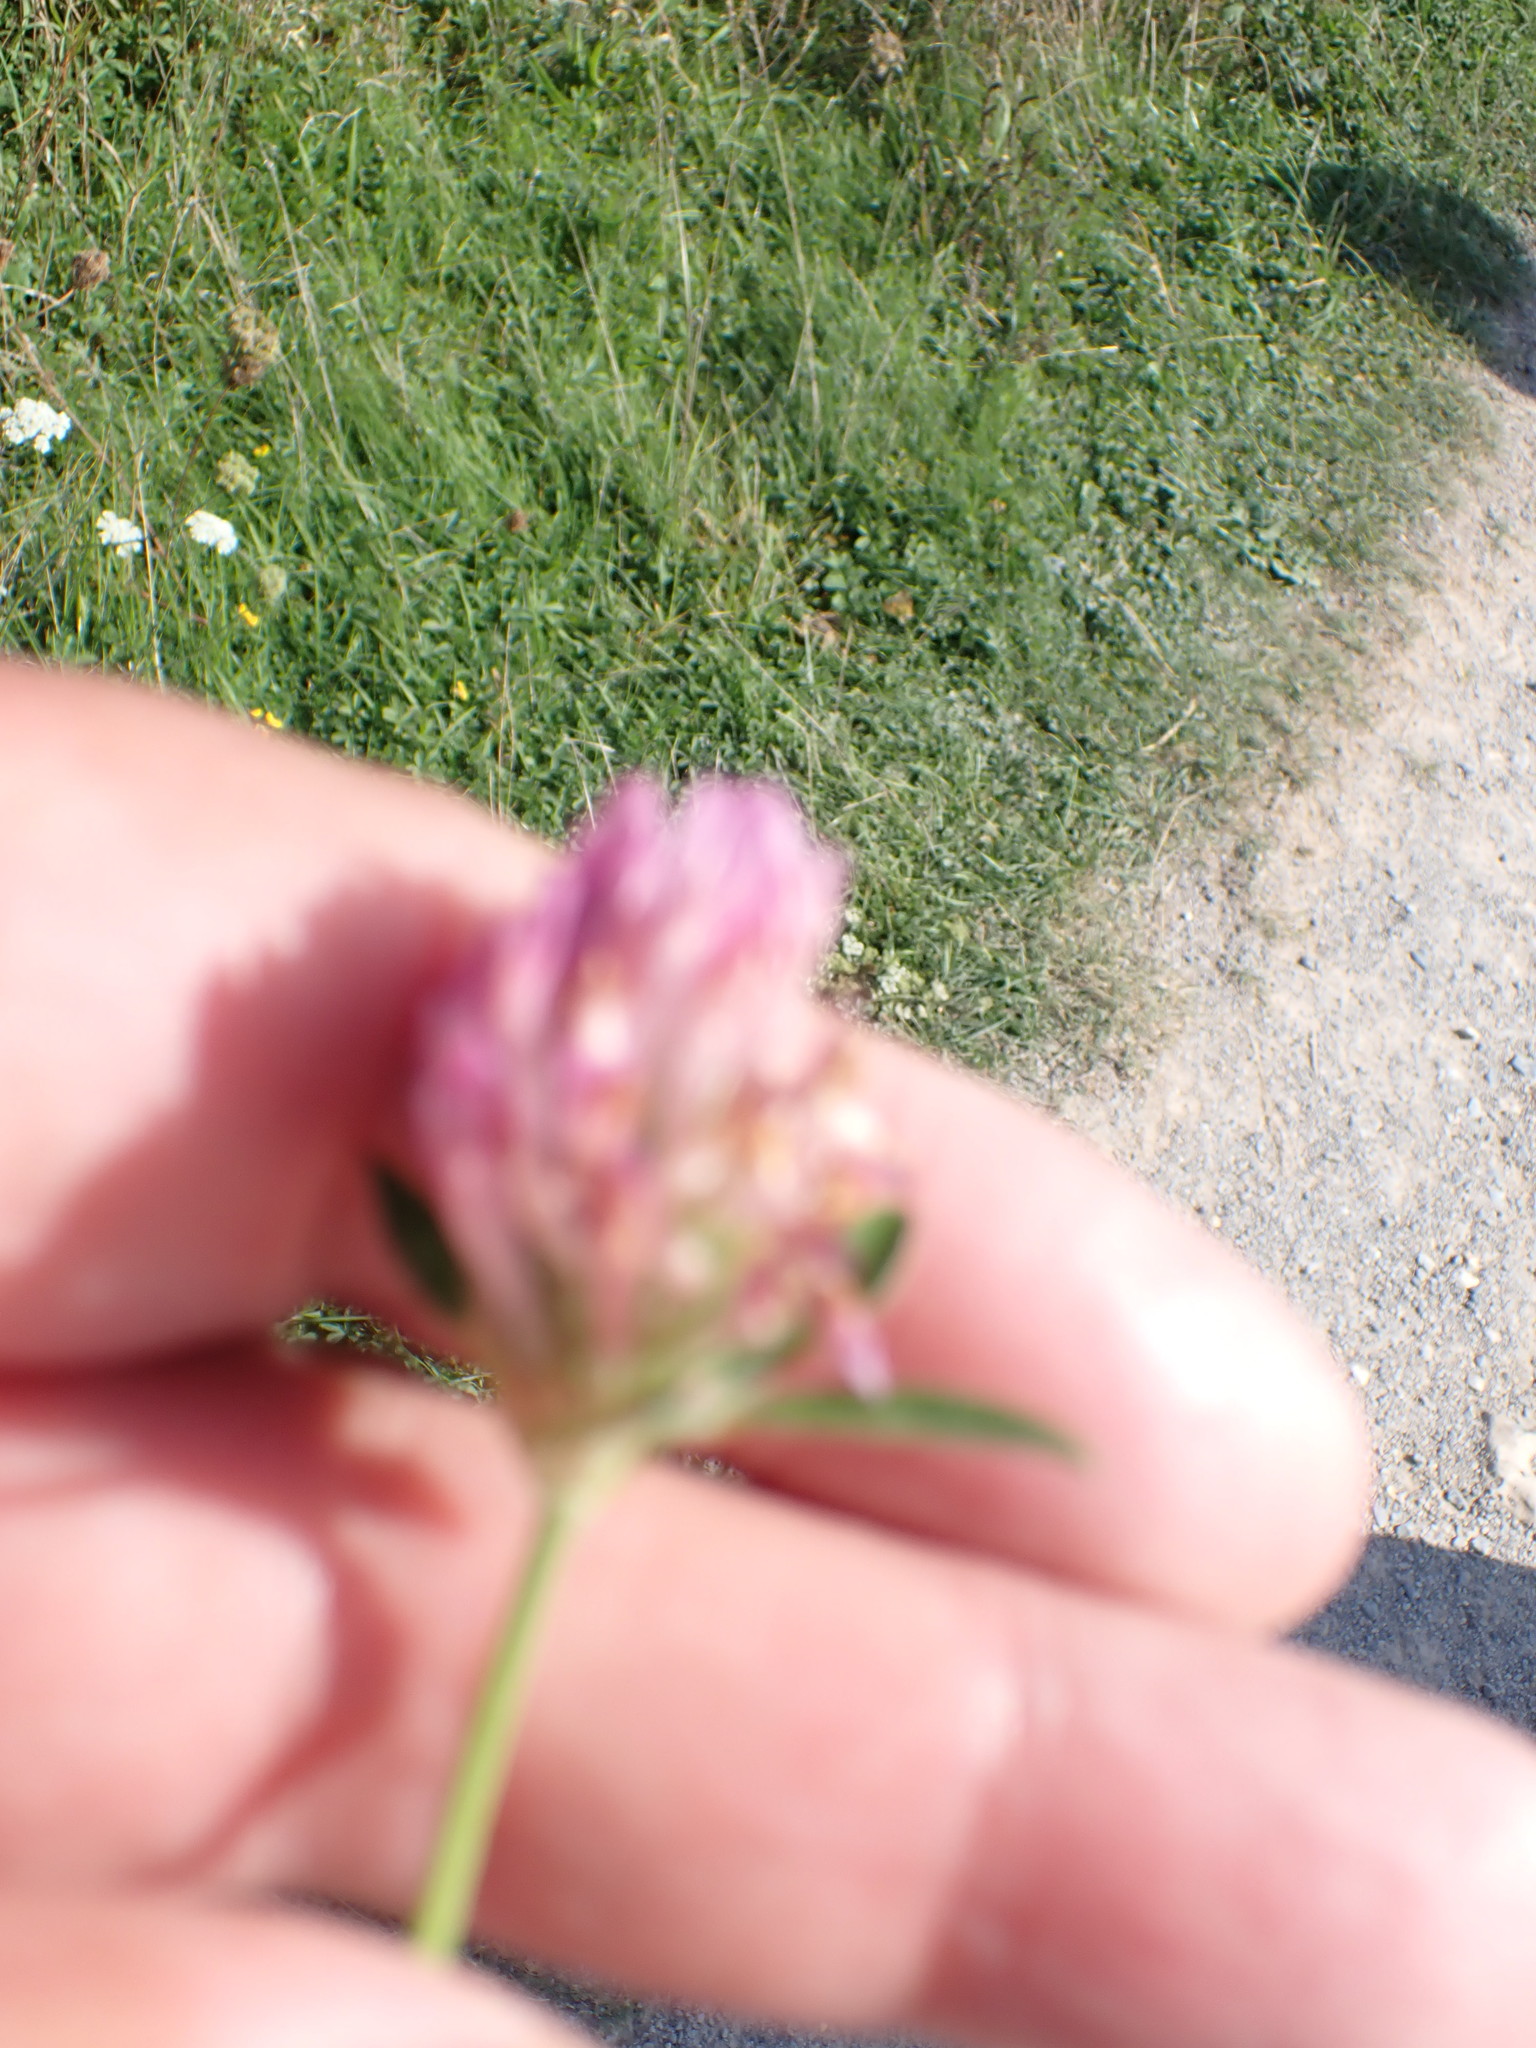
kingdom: Plantae
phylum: Tracheophyta
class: Magnoliopsida
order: Fabales
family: Fabaceae
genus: Trifolium
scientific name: Trifolium pratense
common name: Red clover
